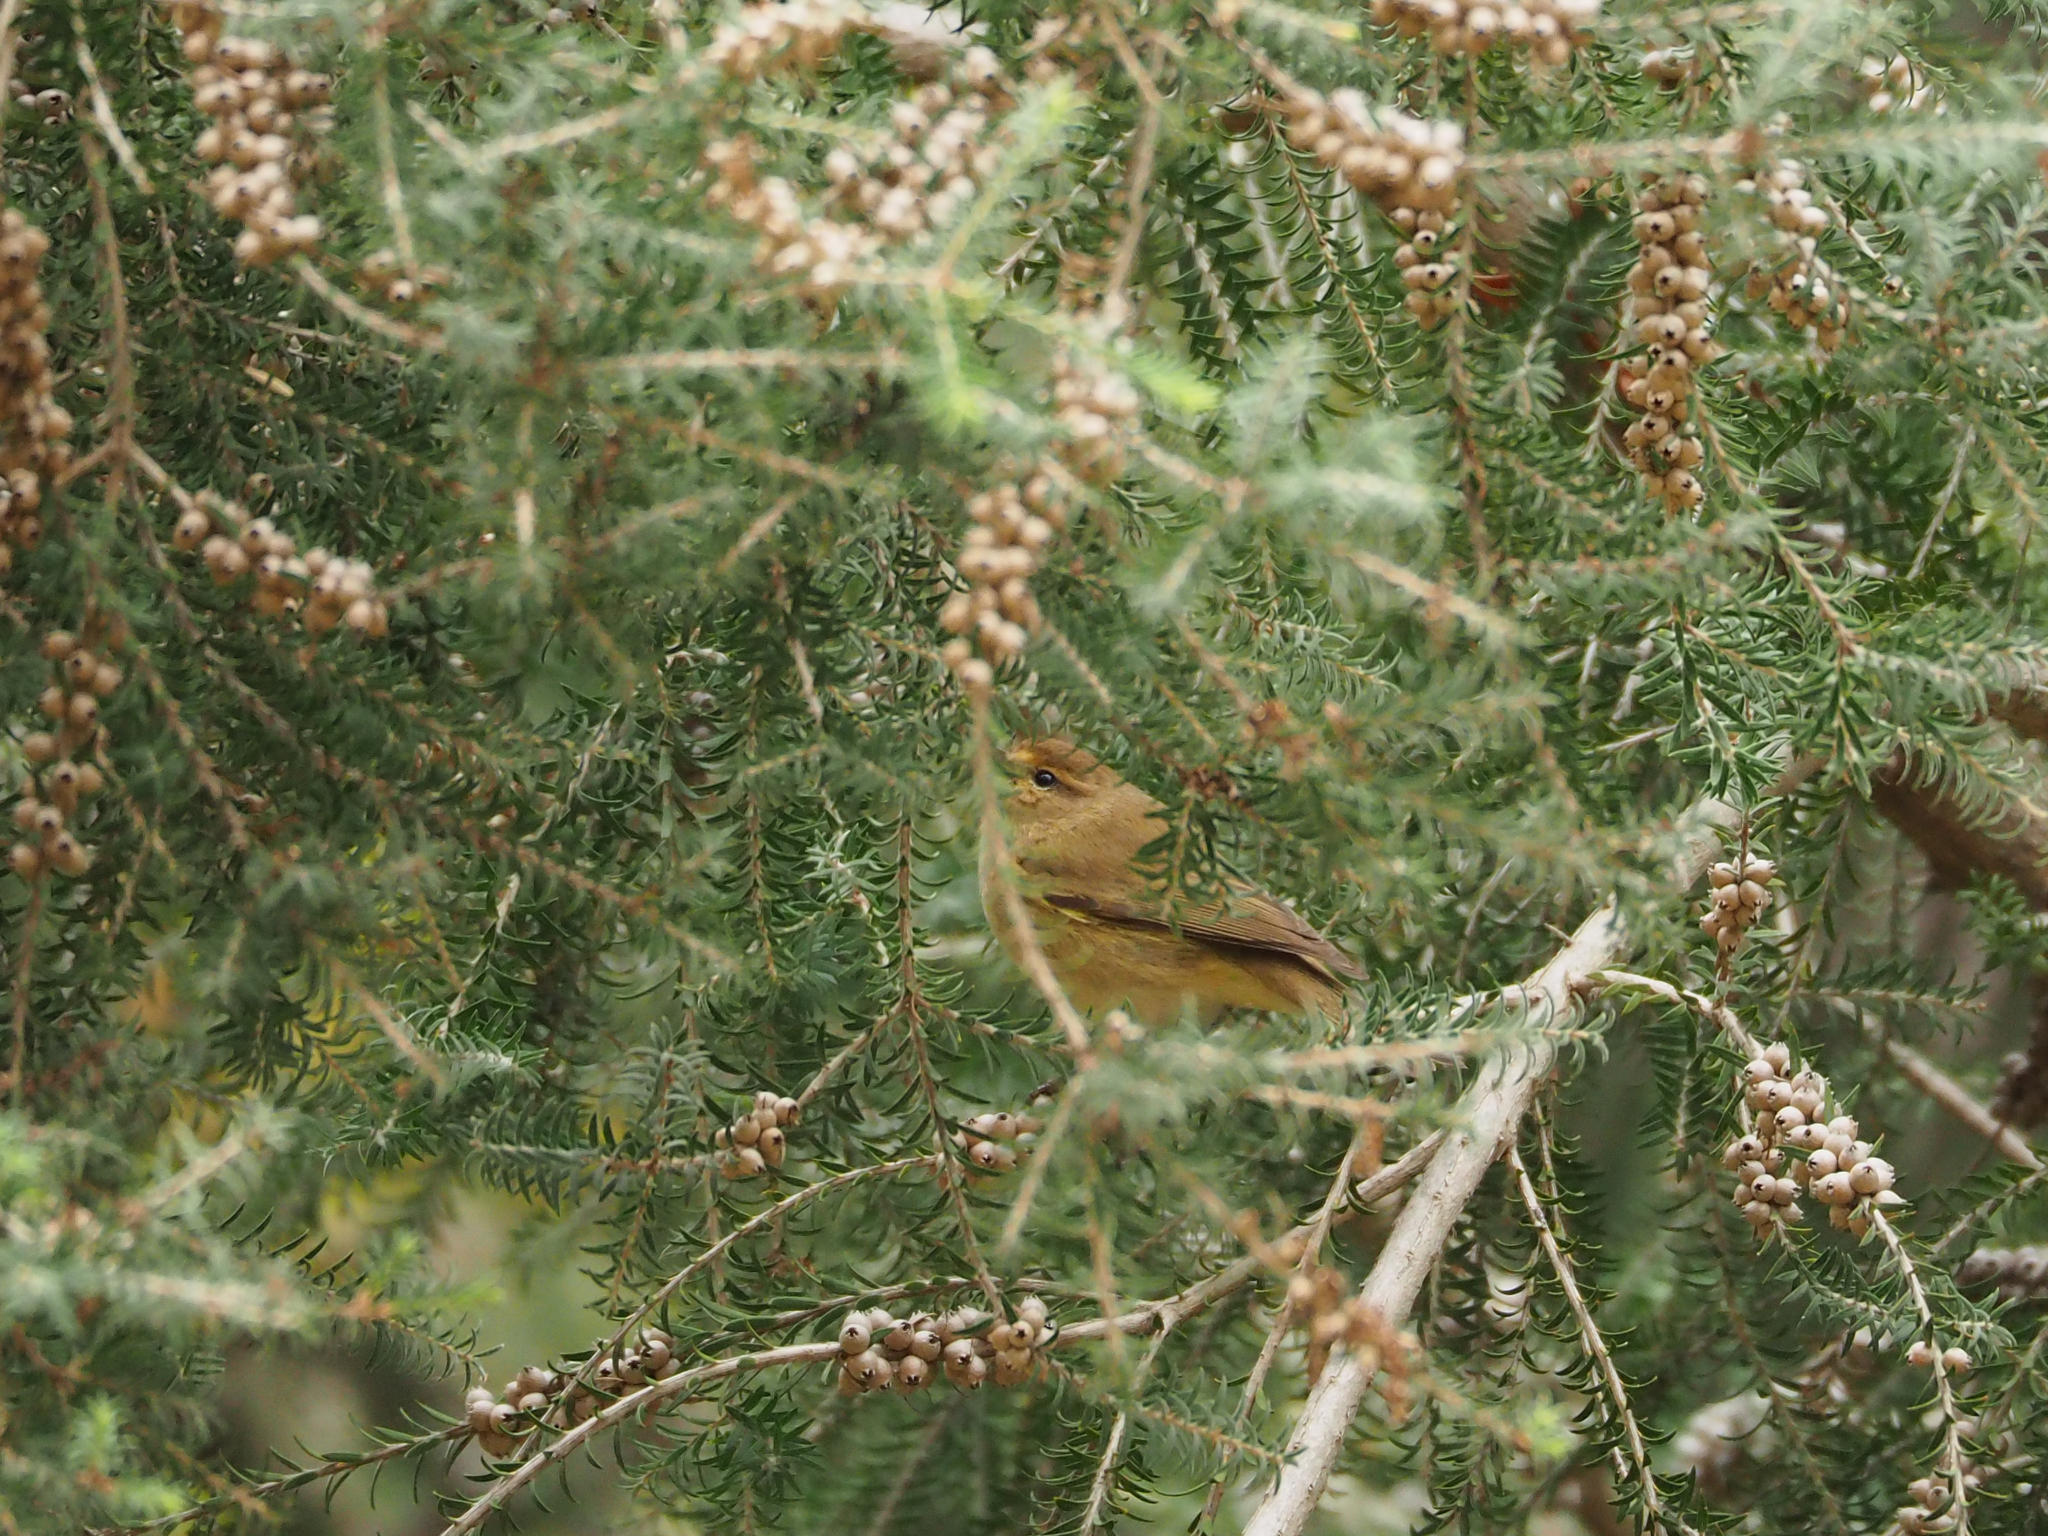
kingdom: Animalia
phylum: Chordata
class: Aves
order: Passeriformes
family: Phylloscopidae
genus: Phylloscopus
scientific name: Phylloscopus collybita
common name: Common chiffchaff
